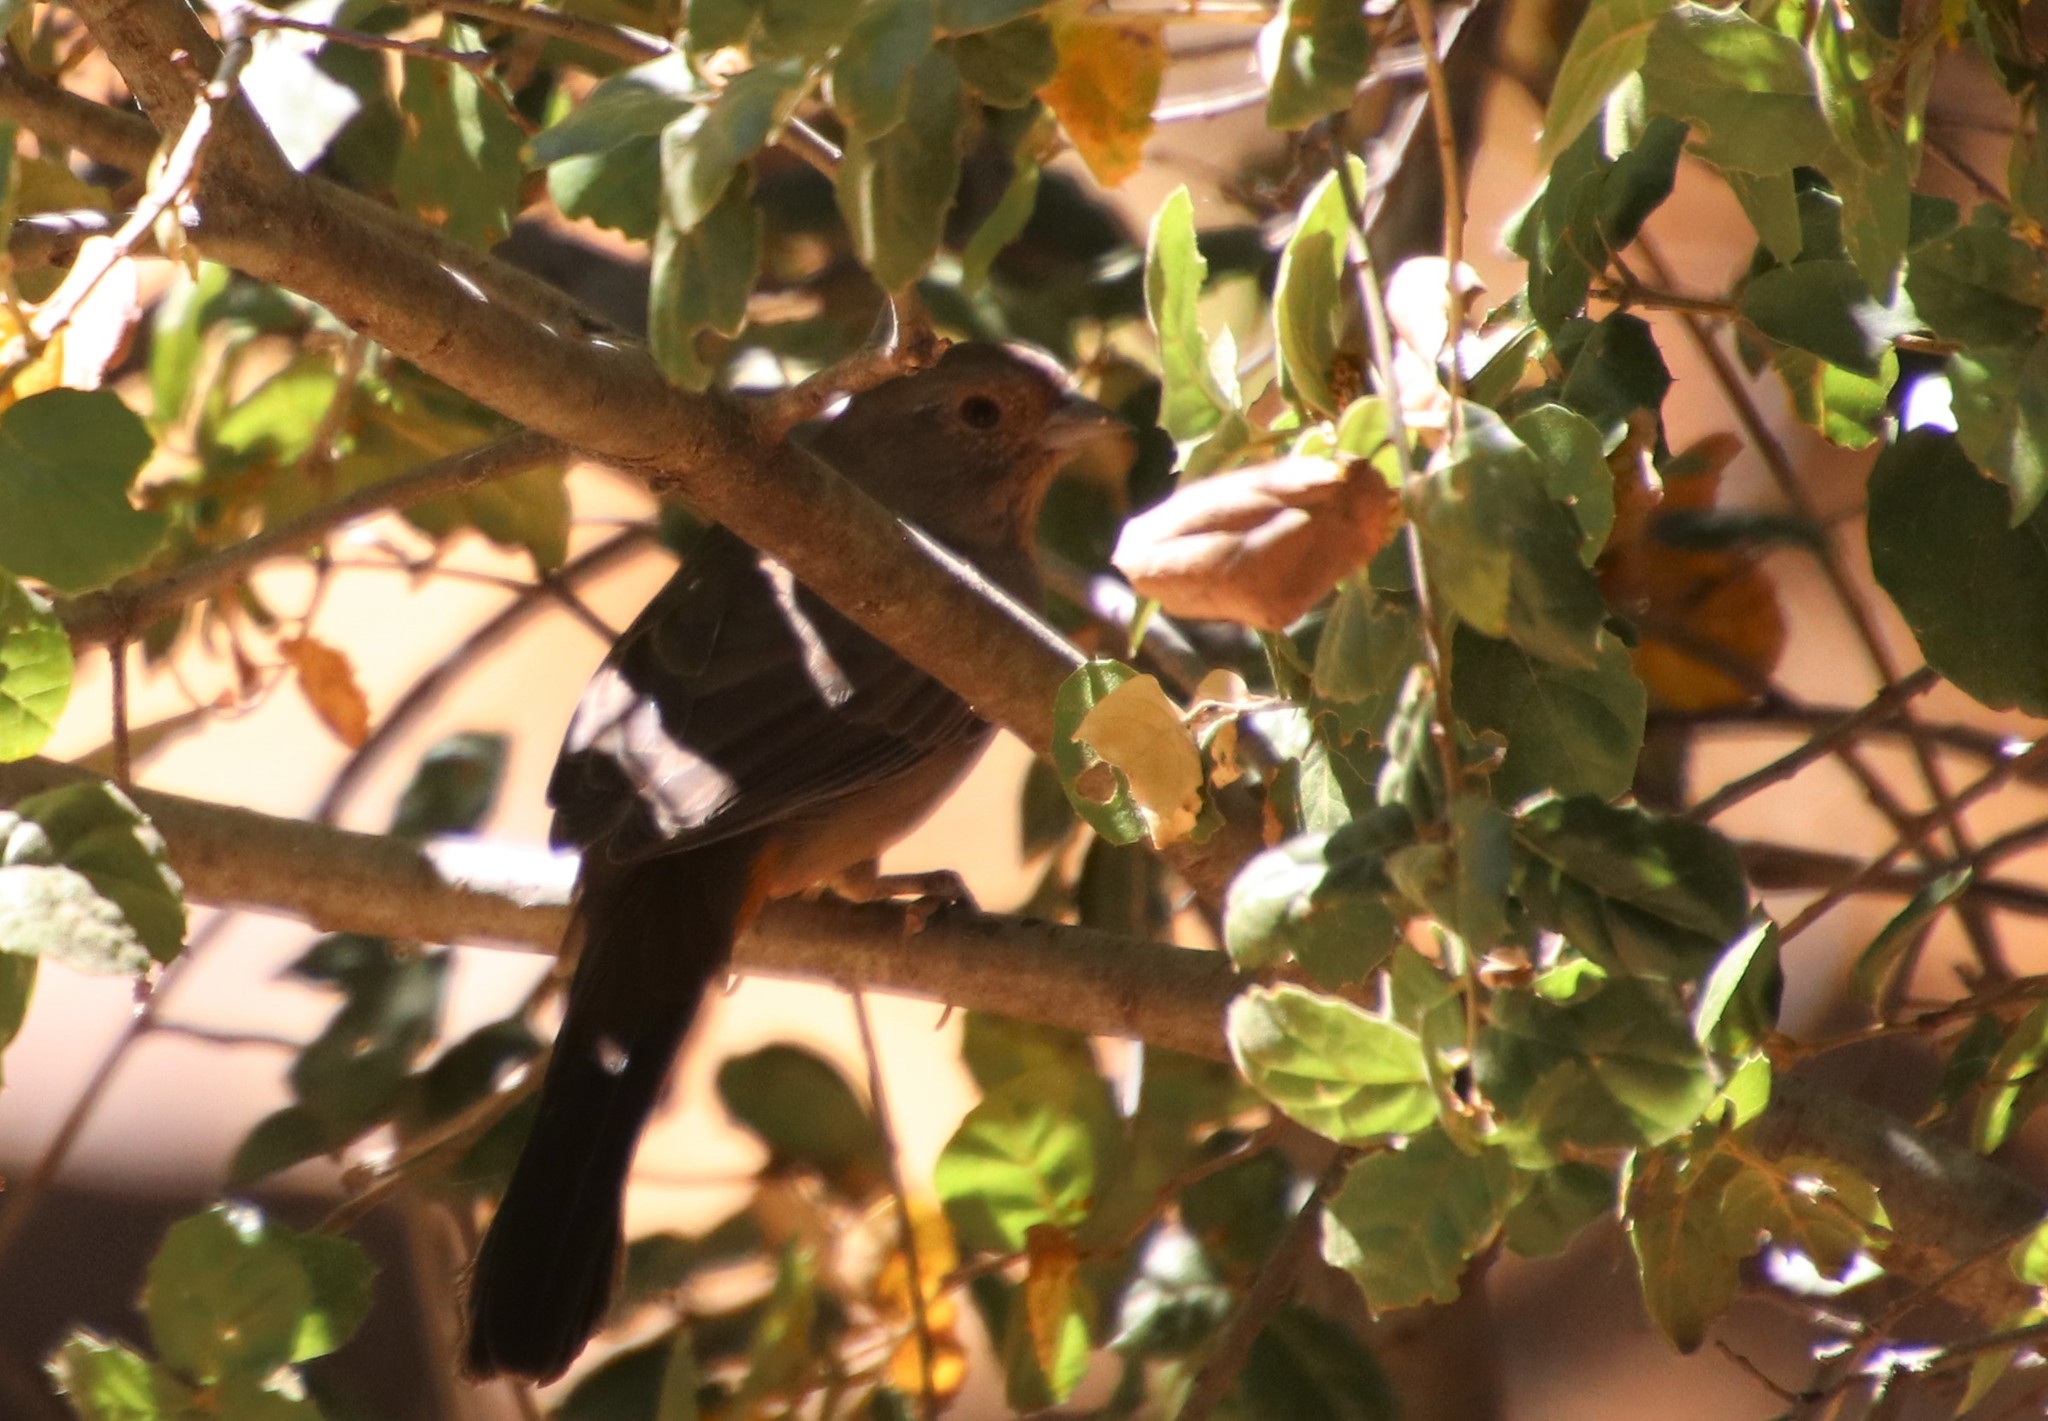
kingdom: Animalia
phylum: Chordata
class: Aves
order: Passeriformes
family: Passerellidae
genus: Melozone
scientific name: Melozone crissalis
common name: California towhee
